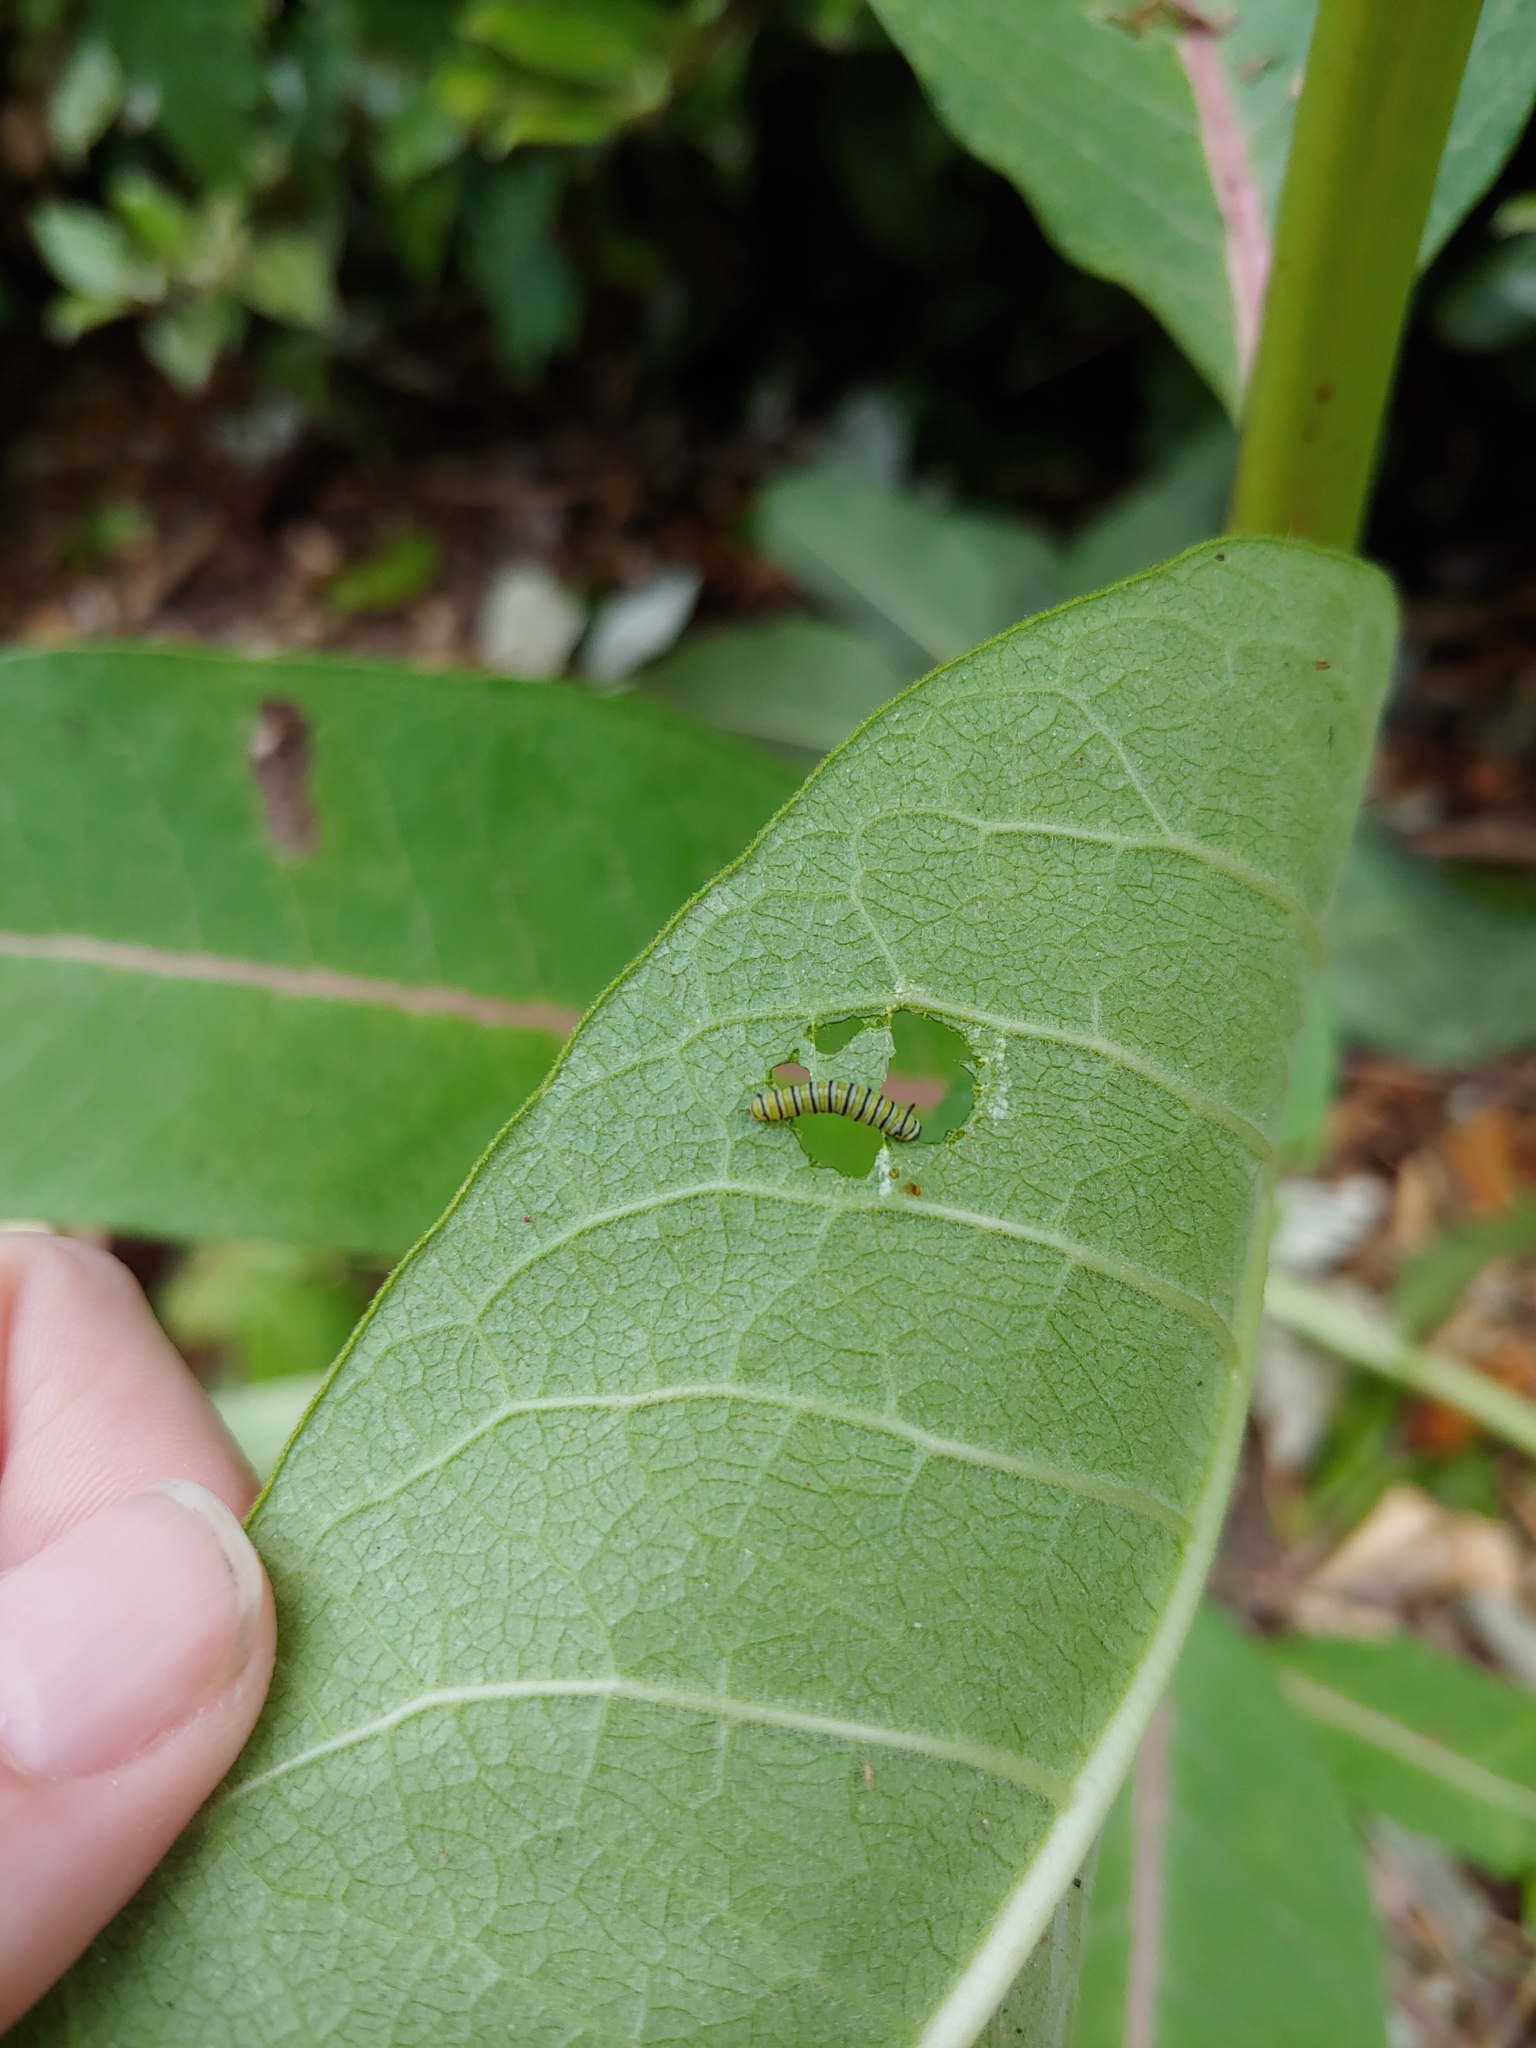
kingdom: Animalia
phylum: Arthropoda
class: Insecta
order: Lepidoptera
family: Nymphalidae
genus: Danaus
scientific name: Danaus plexippus
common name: Monarch
